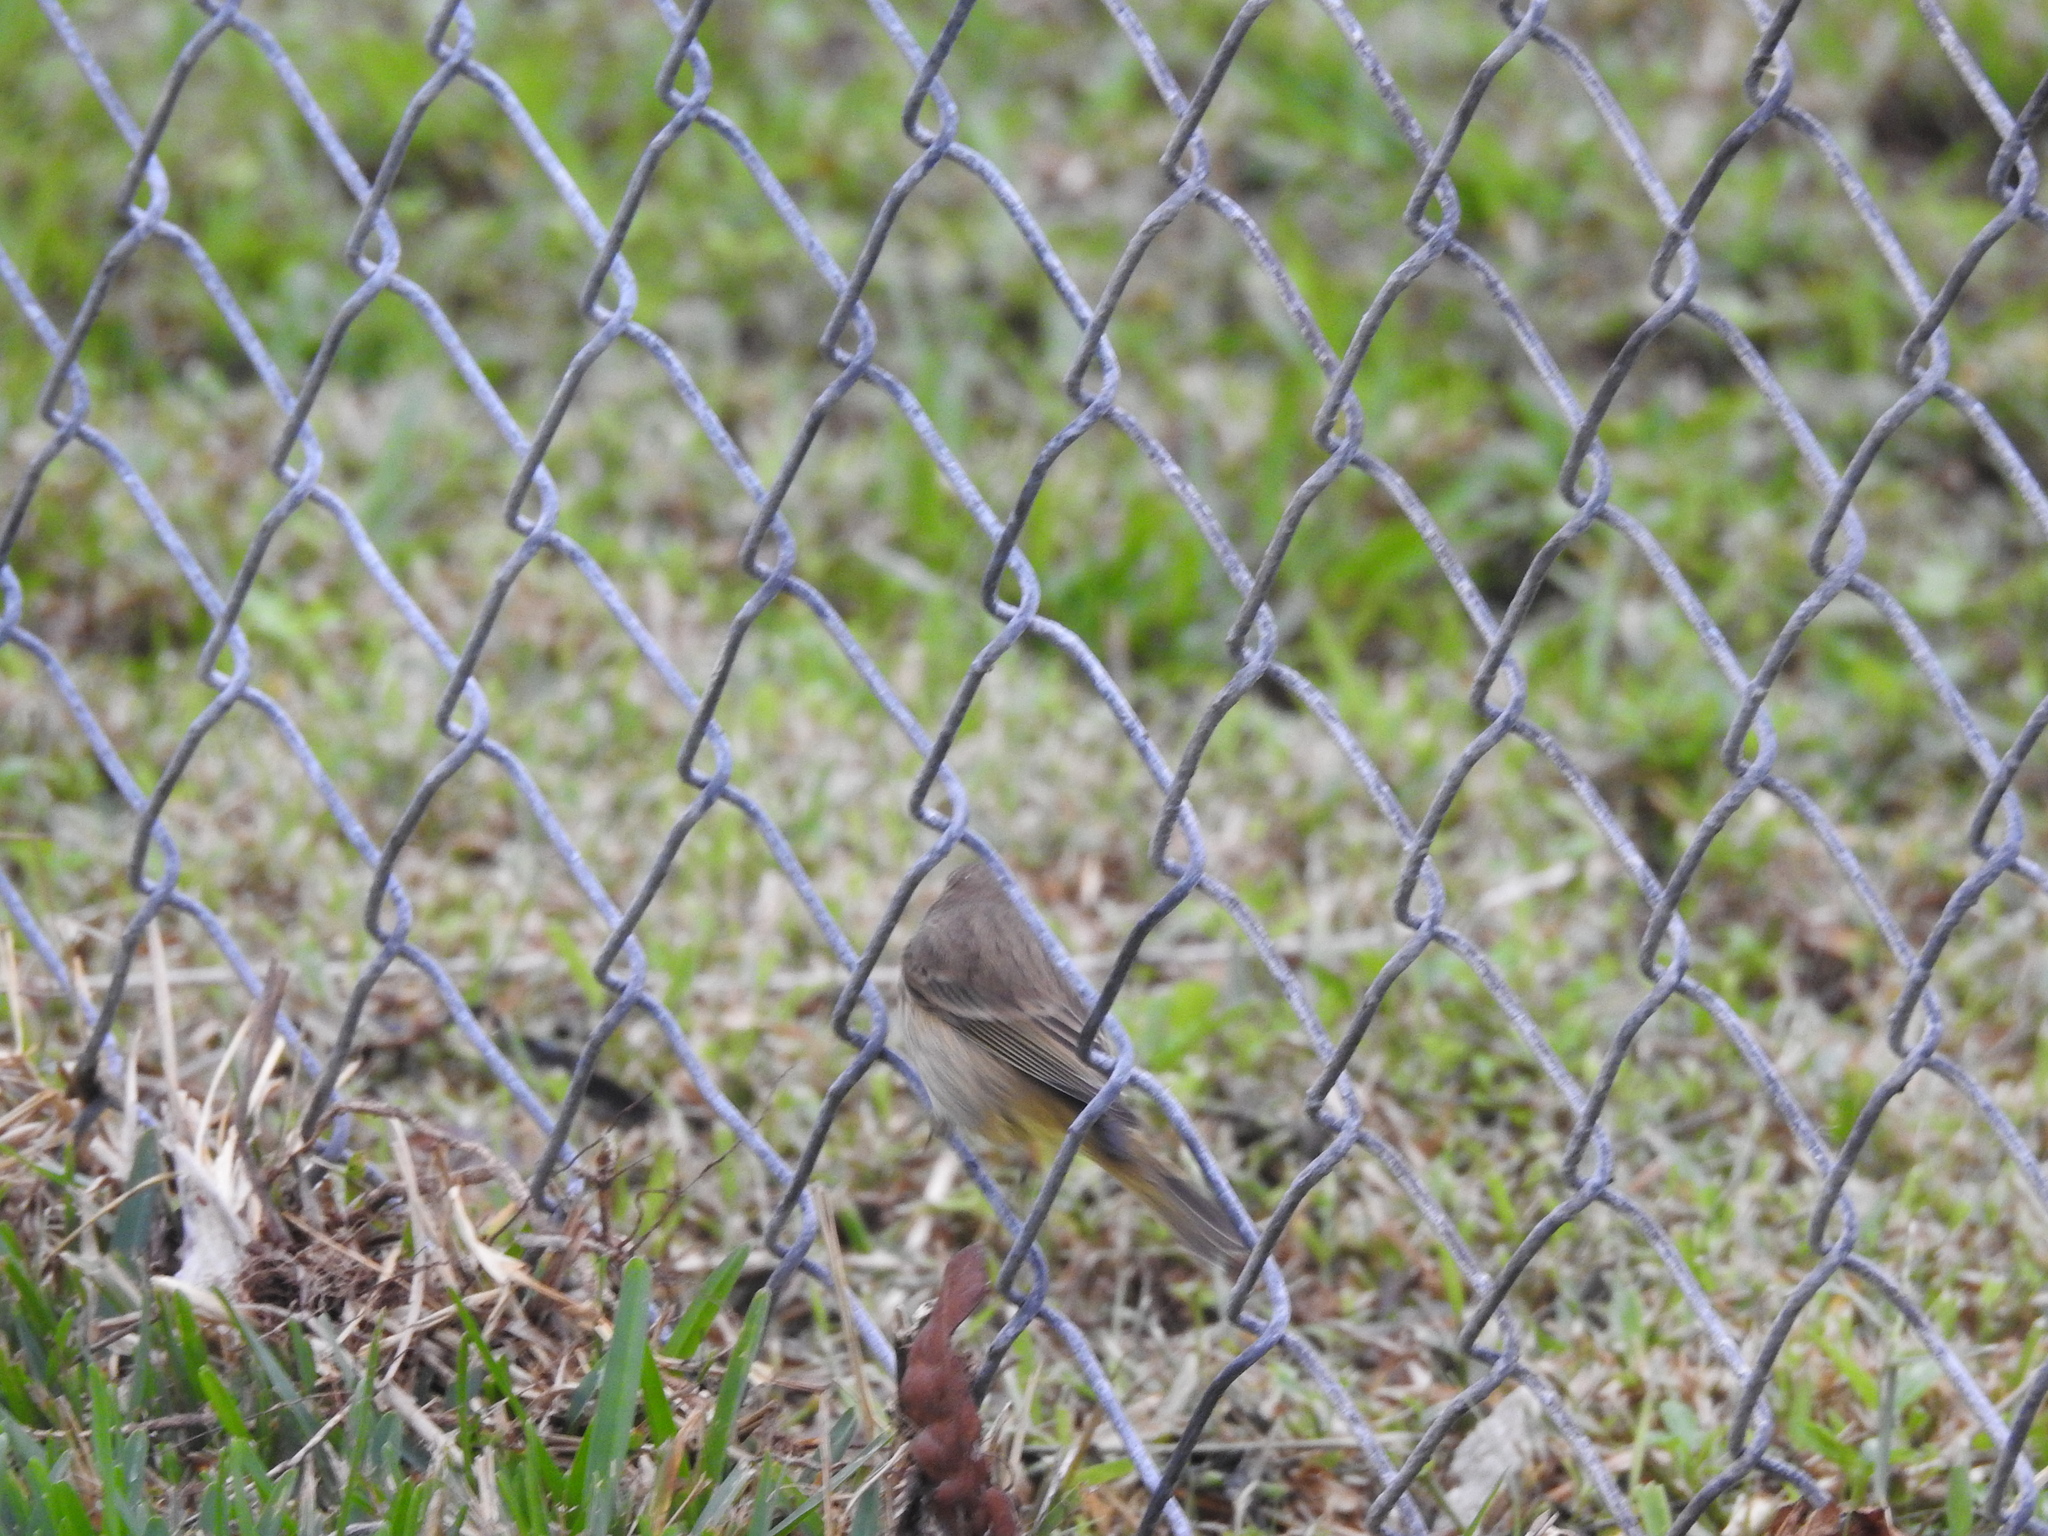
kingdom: Animalia
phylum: Chordata
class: Aves
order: Passeriformes
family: Parulidae
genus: Setophaga
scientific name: Setophaga palmarum
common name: Palm warbler
